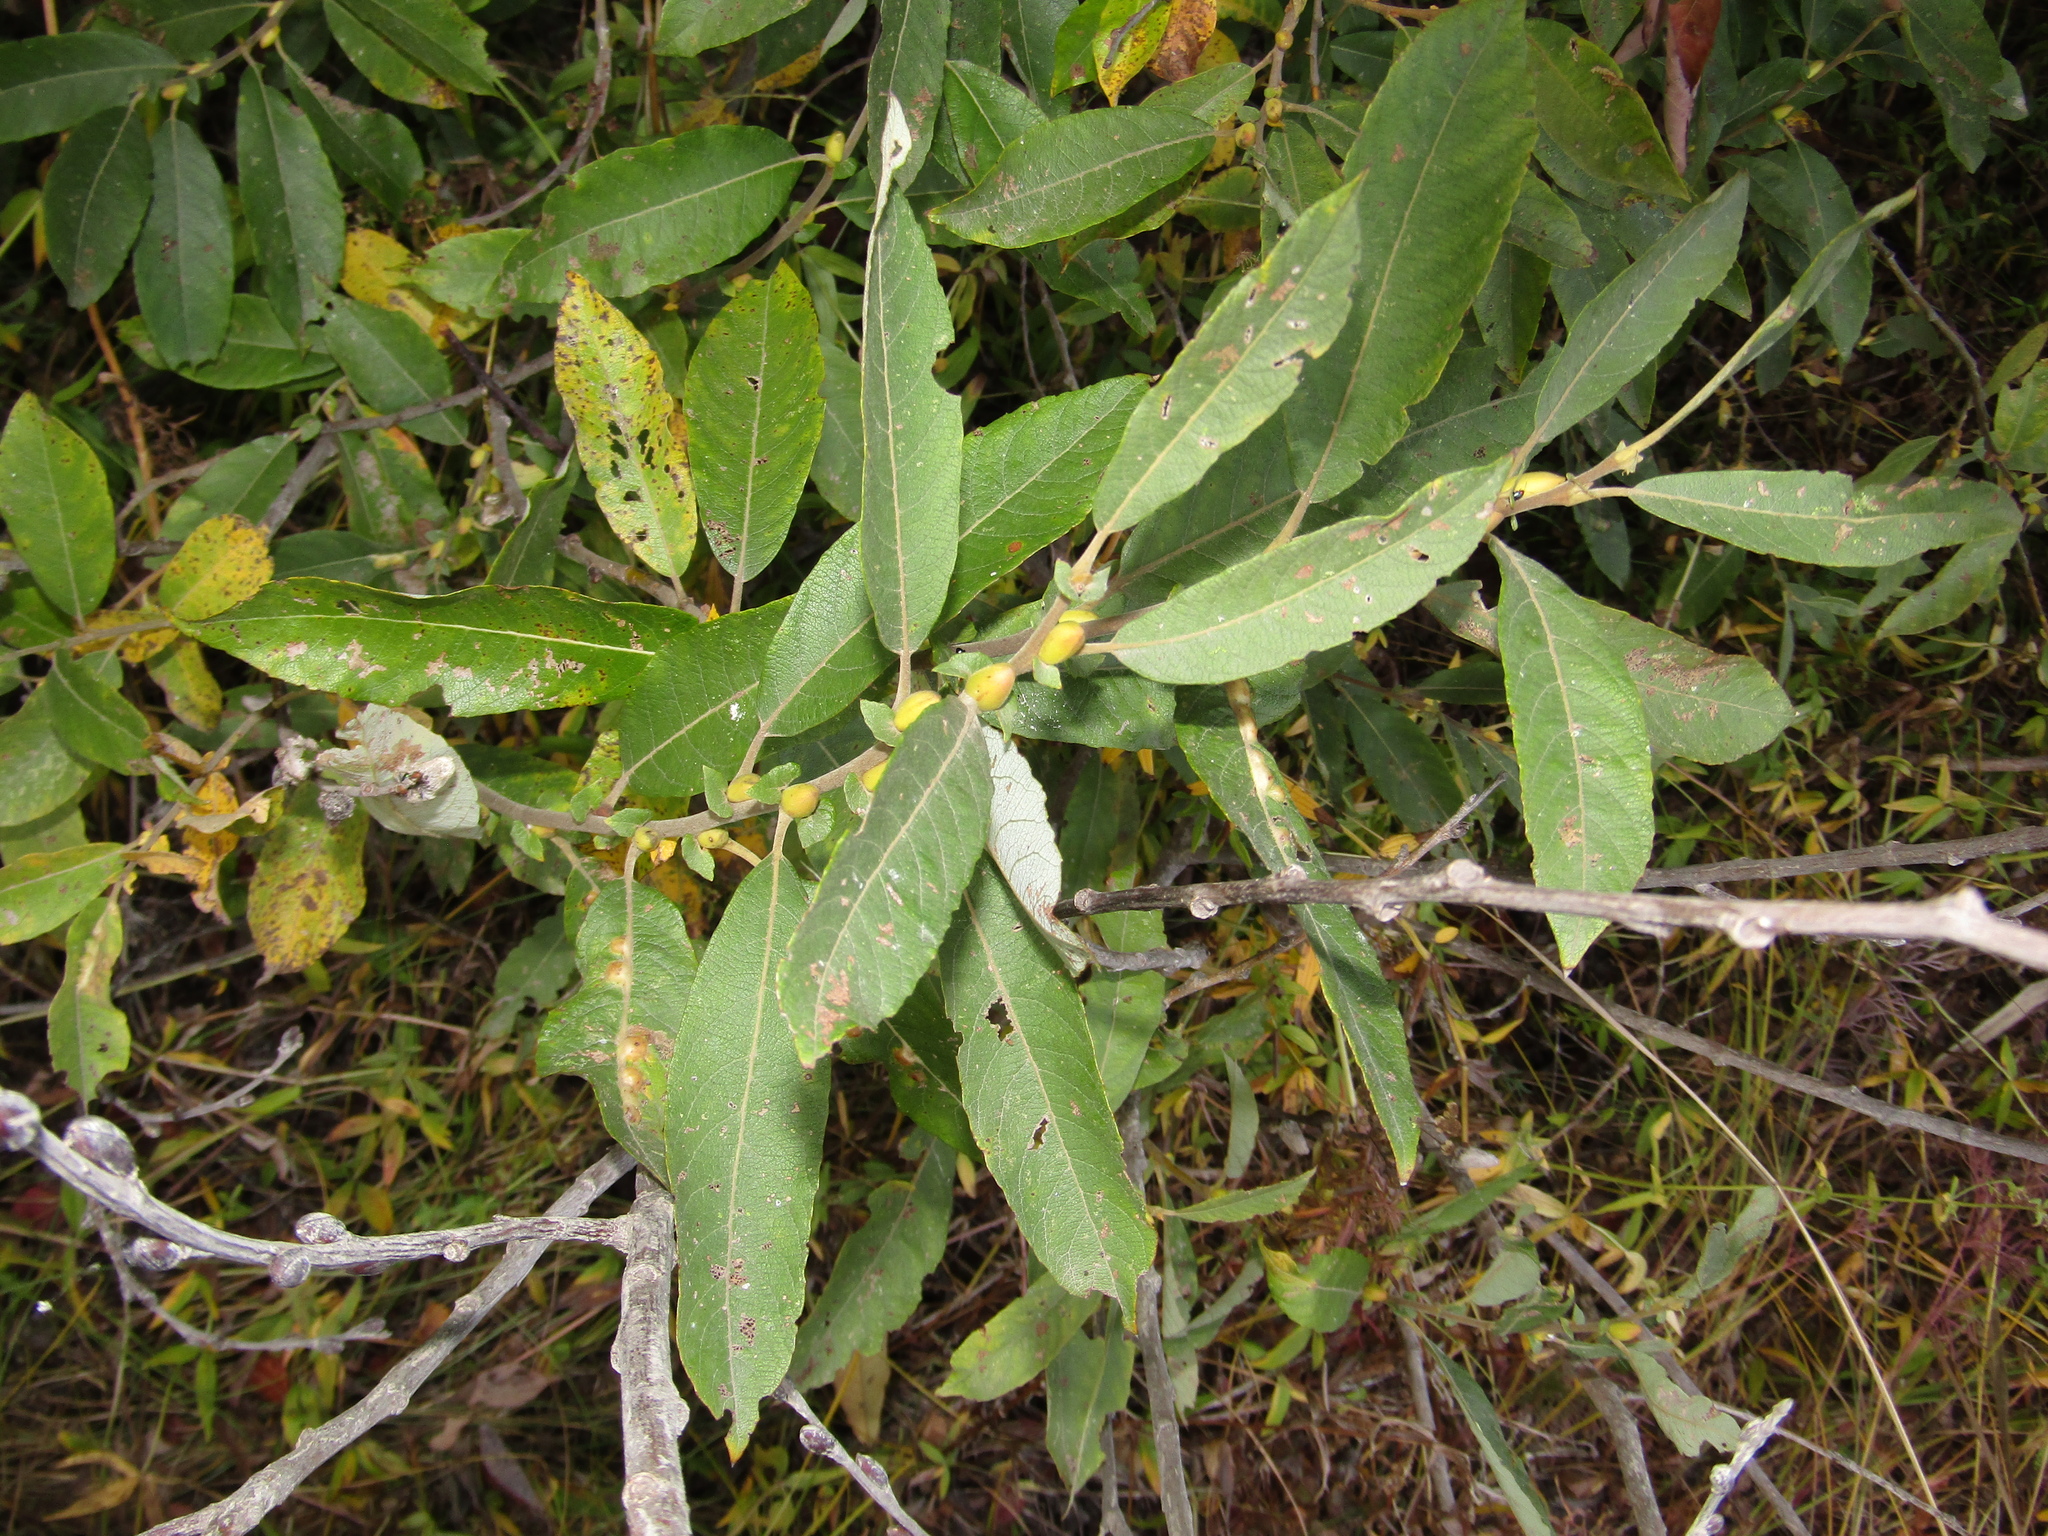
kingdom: Plantae
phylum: Tracheophyta
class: Magnoliopsida
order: Malpighiales
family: Salicaceae
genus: Salix
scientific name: Salix cinerea
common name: Common sallow
